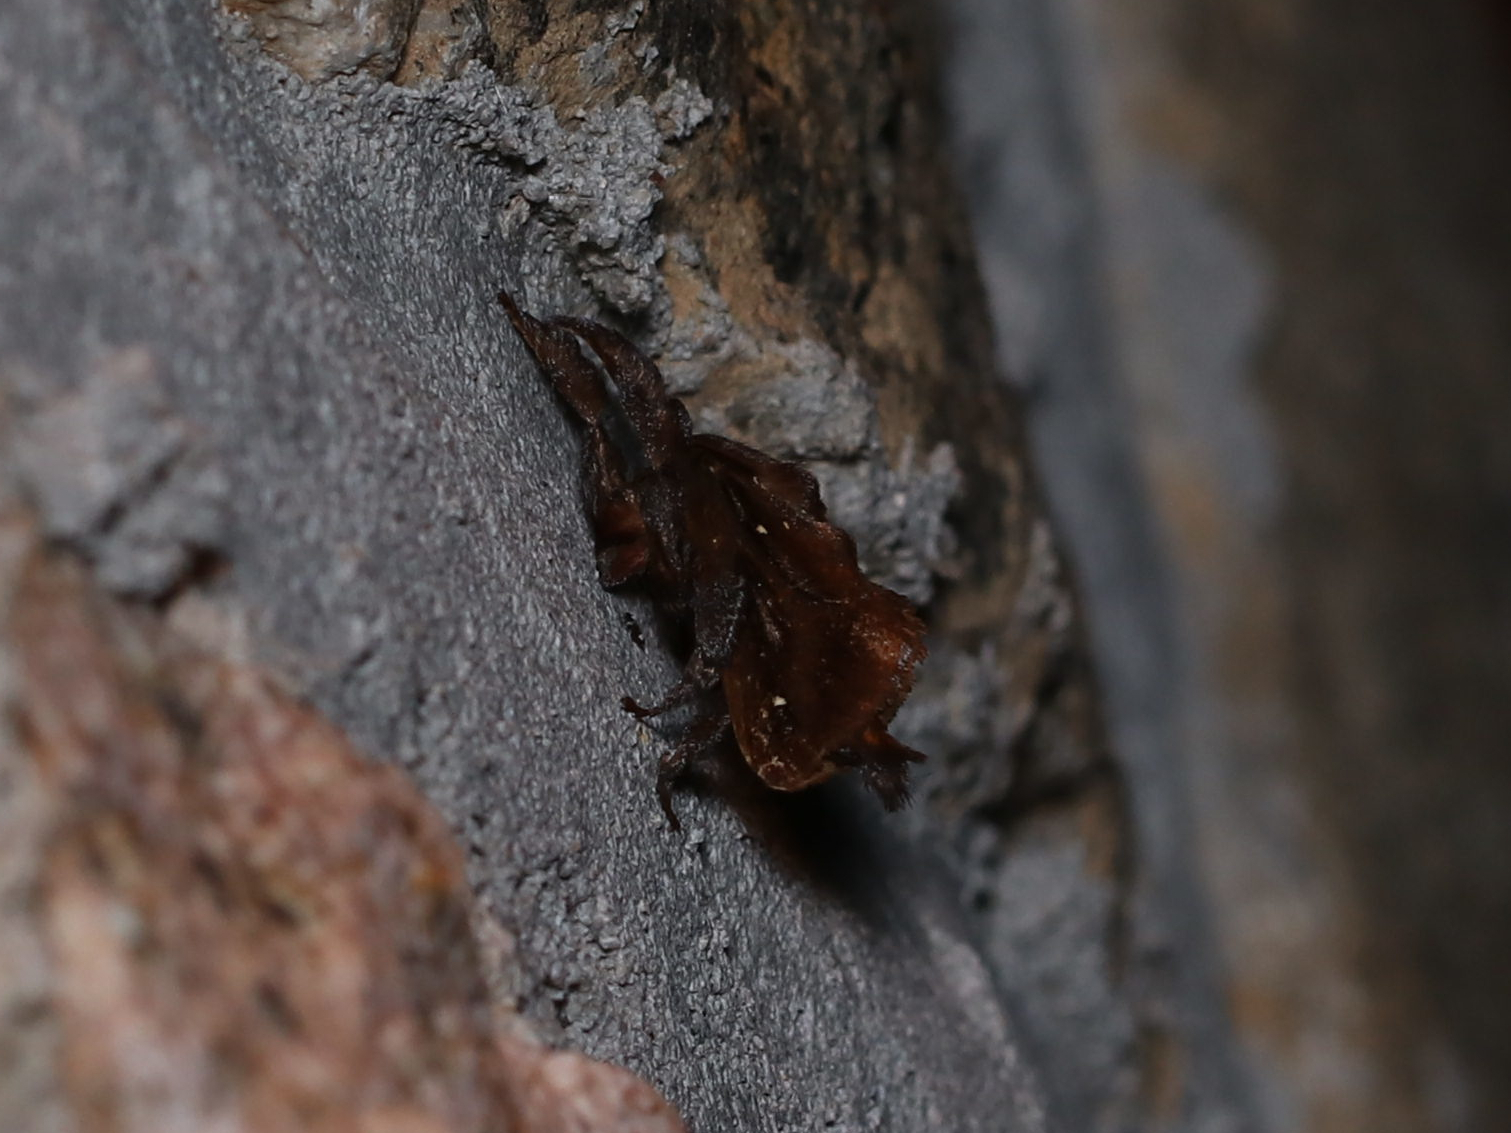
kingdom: Animalia
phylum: Arthropoda
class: Insecta
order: Lepidoptera
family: Limacodidae
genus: Acharia
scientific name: Acharia stimulea
